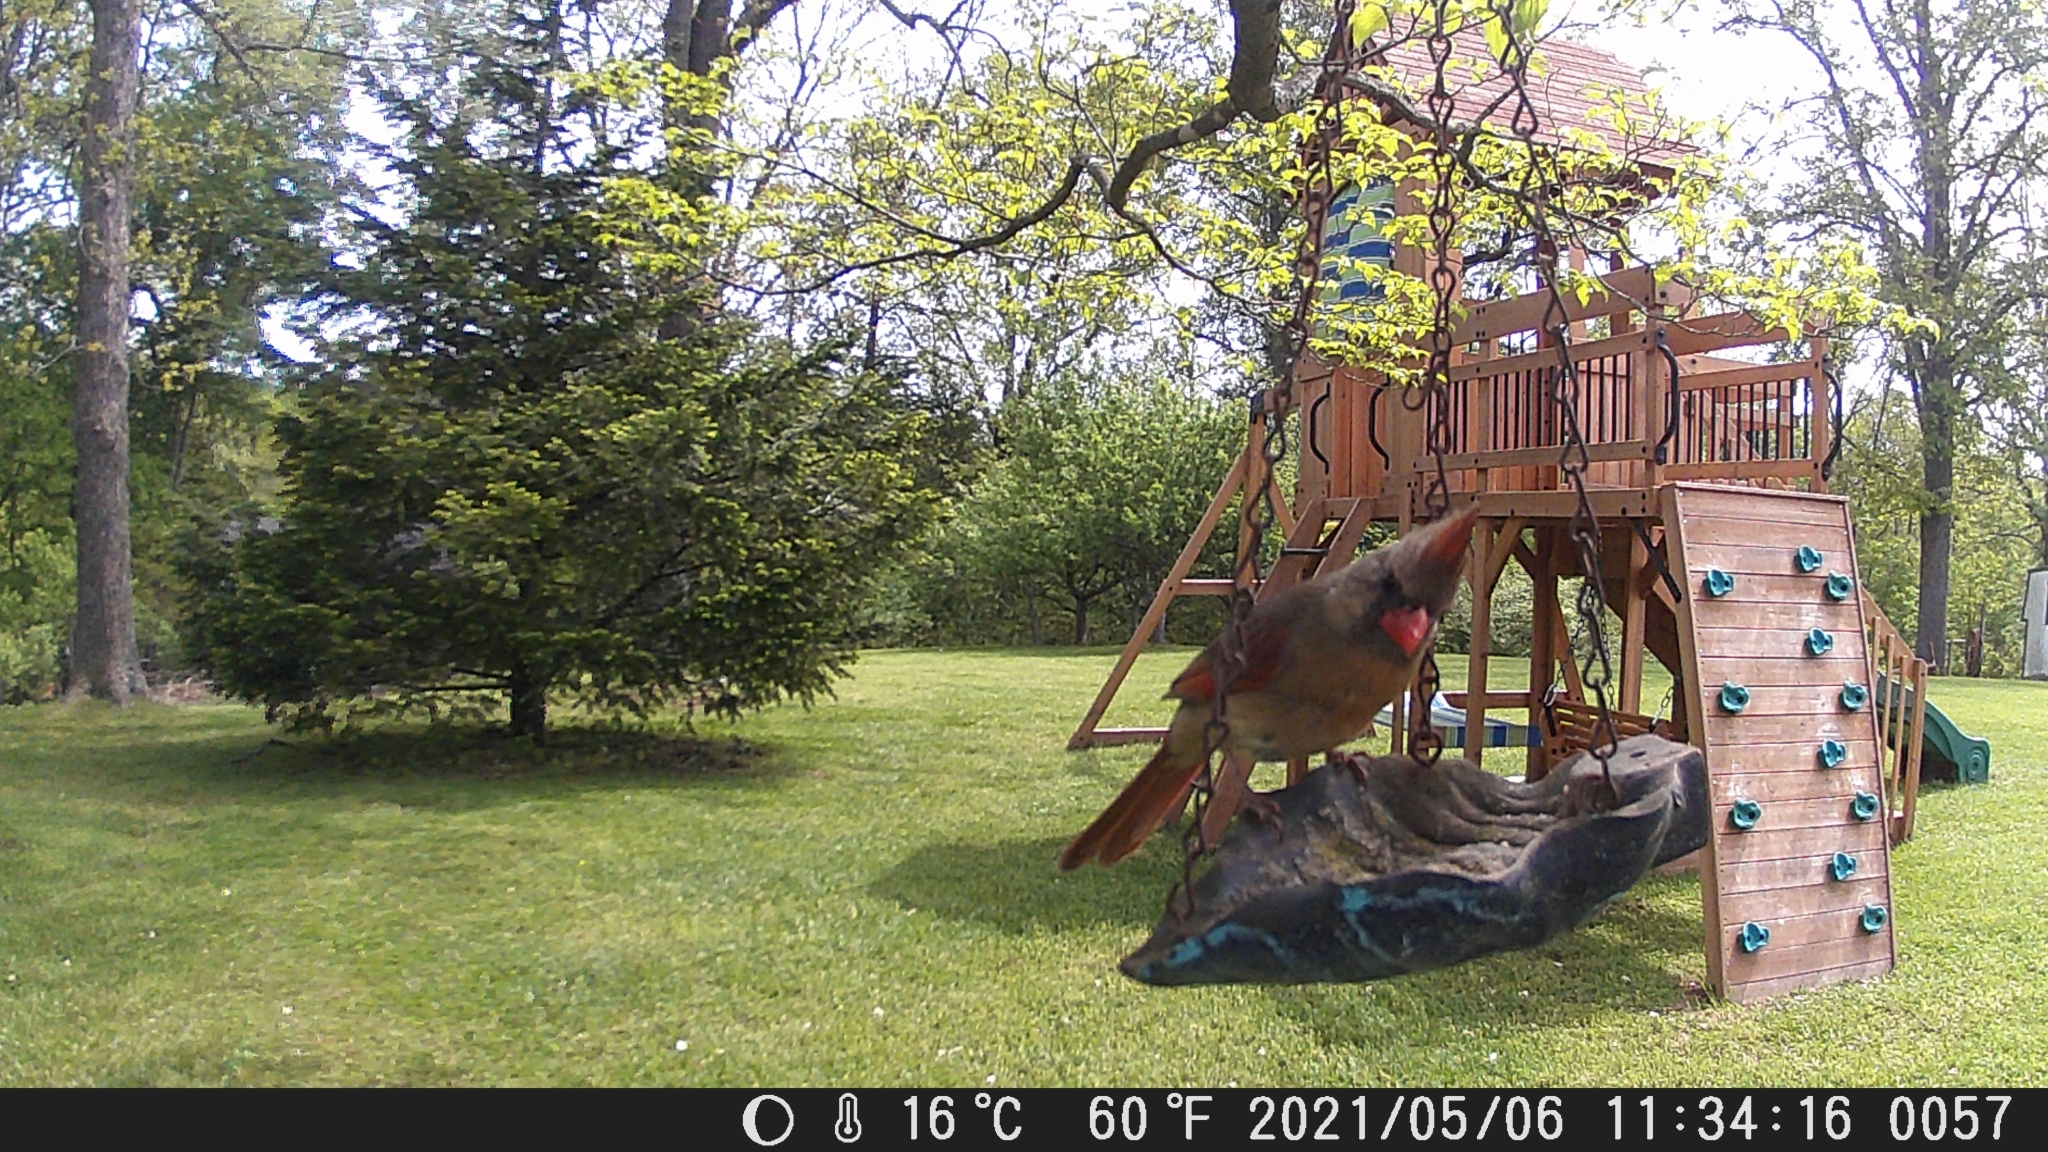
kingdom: Animalia
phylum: Chordata
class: Aves
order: Passeriformes
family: Cardinalidae
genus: Cardinalis
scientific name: Cardinalis cardinalis
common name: Northern cardinal
